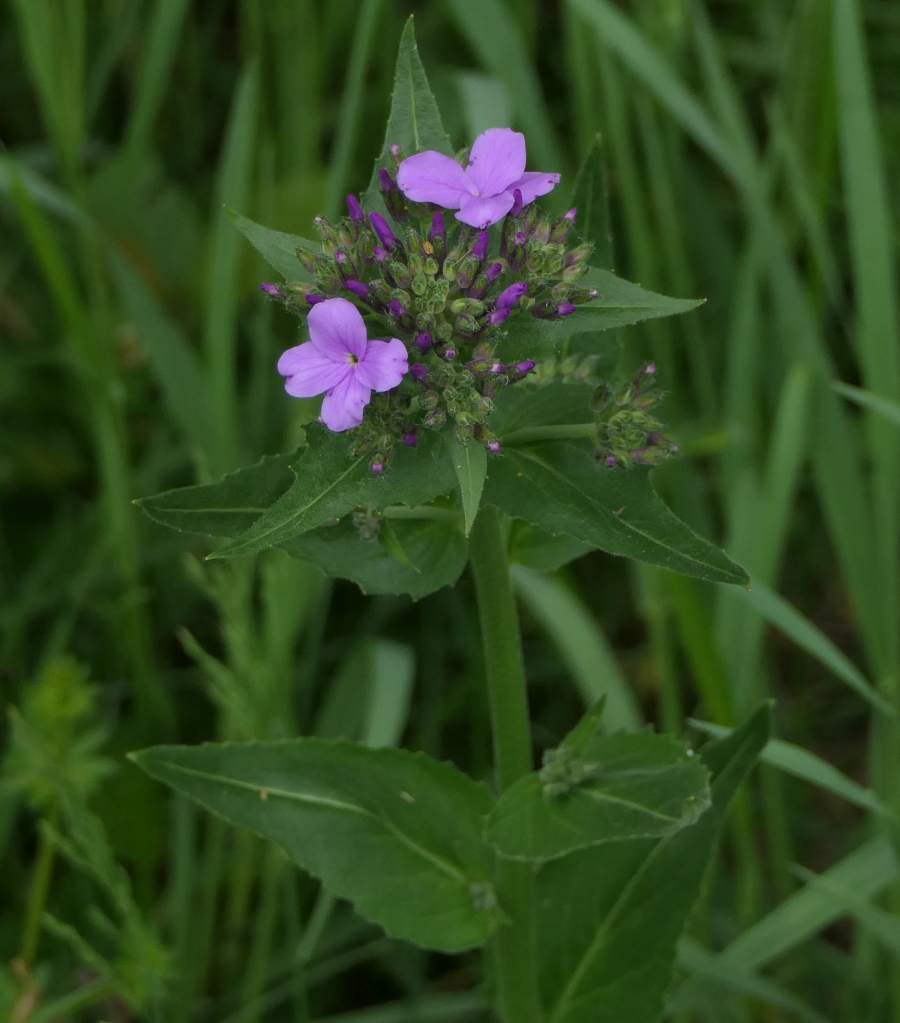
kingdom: Plantae
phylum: Tracheophyta
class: Magnoliopsida
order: Brassicales
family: Brassicaceae
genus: Hesperis
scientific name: Hesperis matronalis
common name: Dame's-violet
